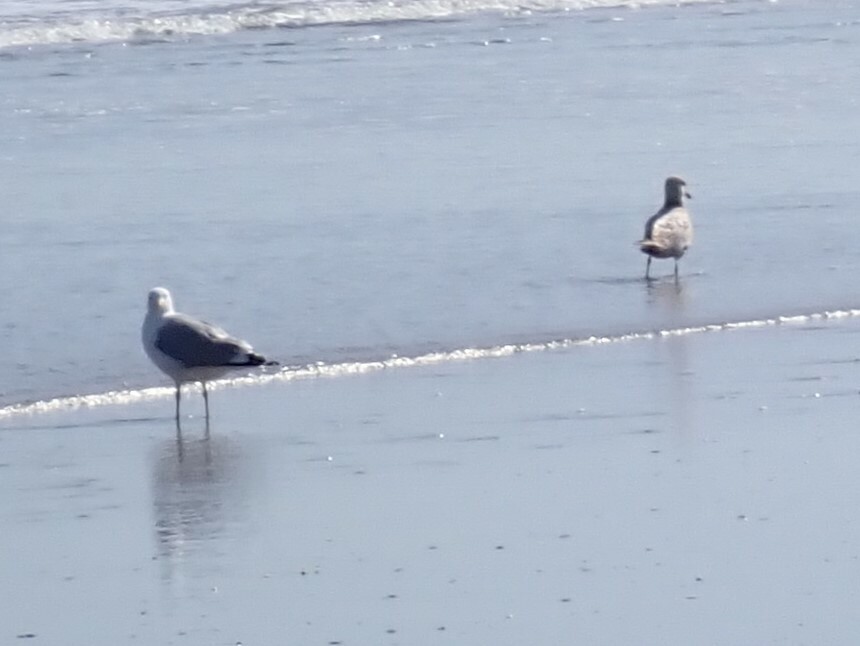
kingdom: Animalia
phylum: Chordata
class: Aves
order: Charadriiformes
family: Laridae
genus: Larus
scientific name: Larus smithsonianus
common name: American herring gull
